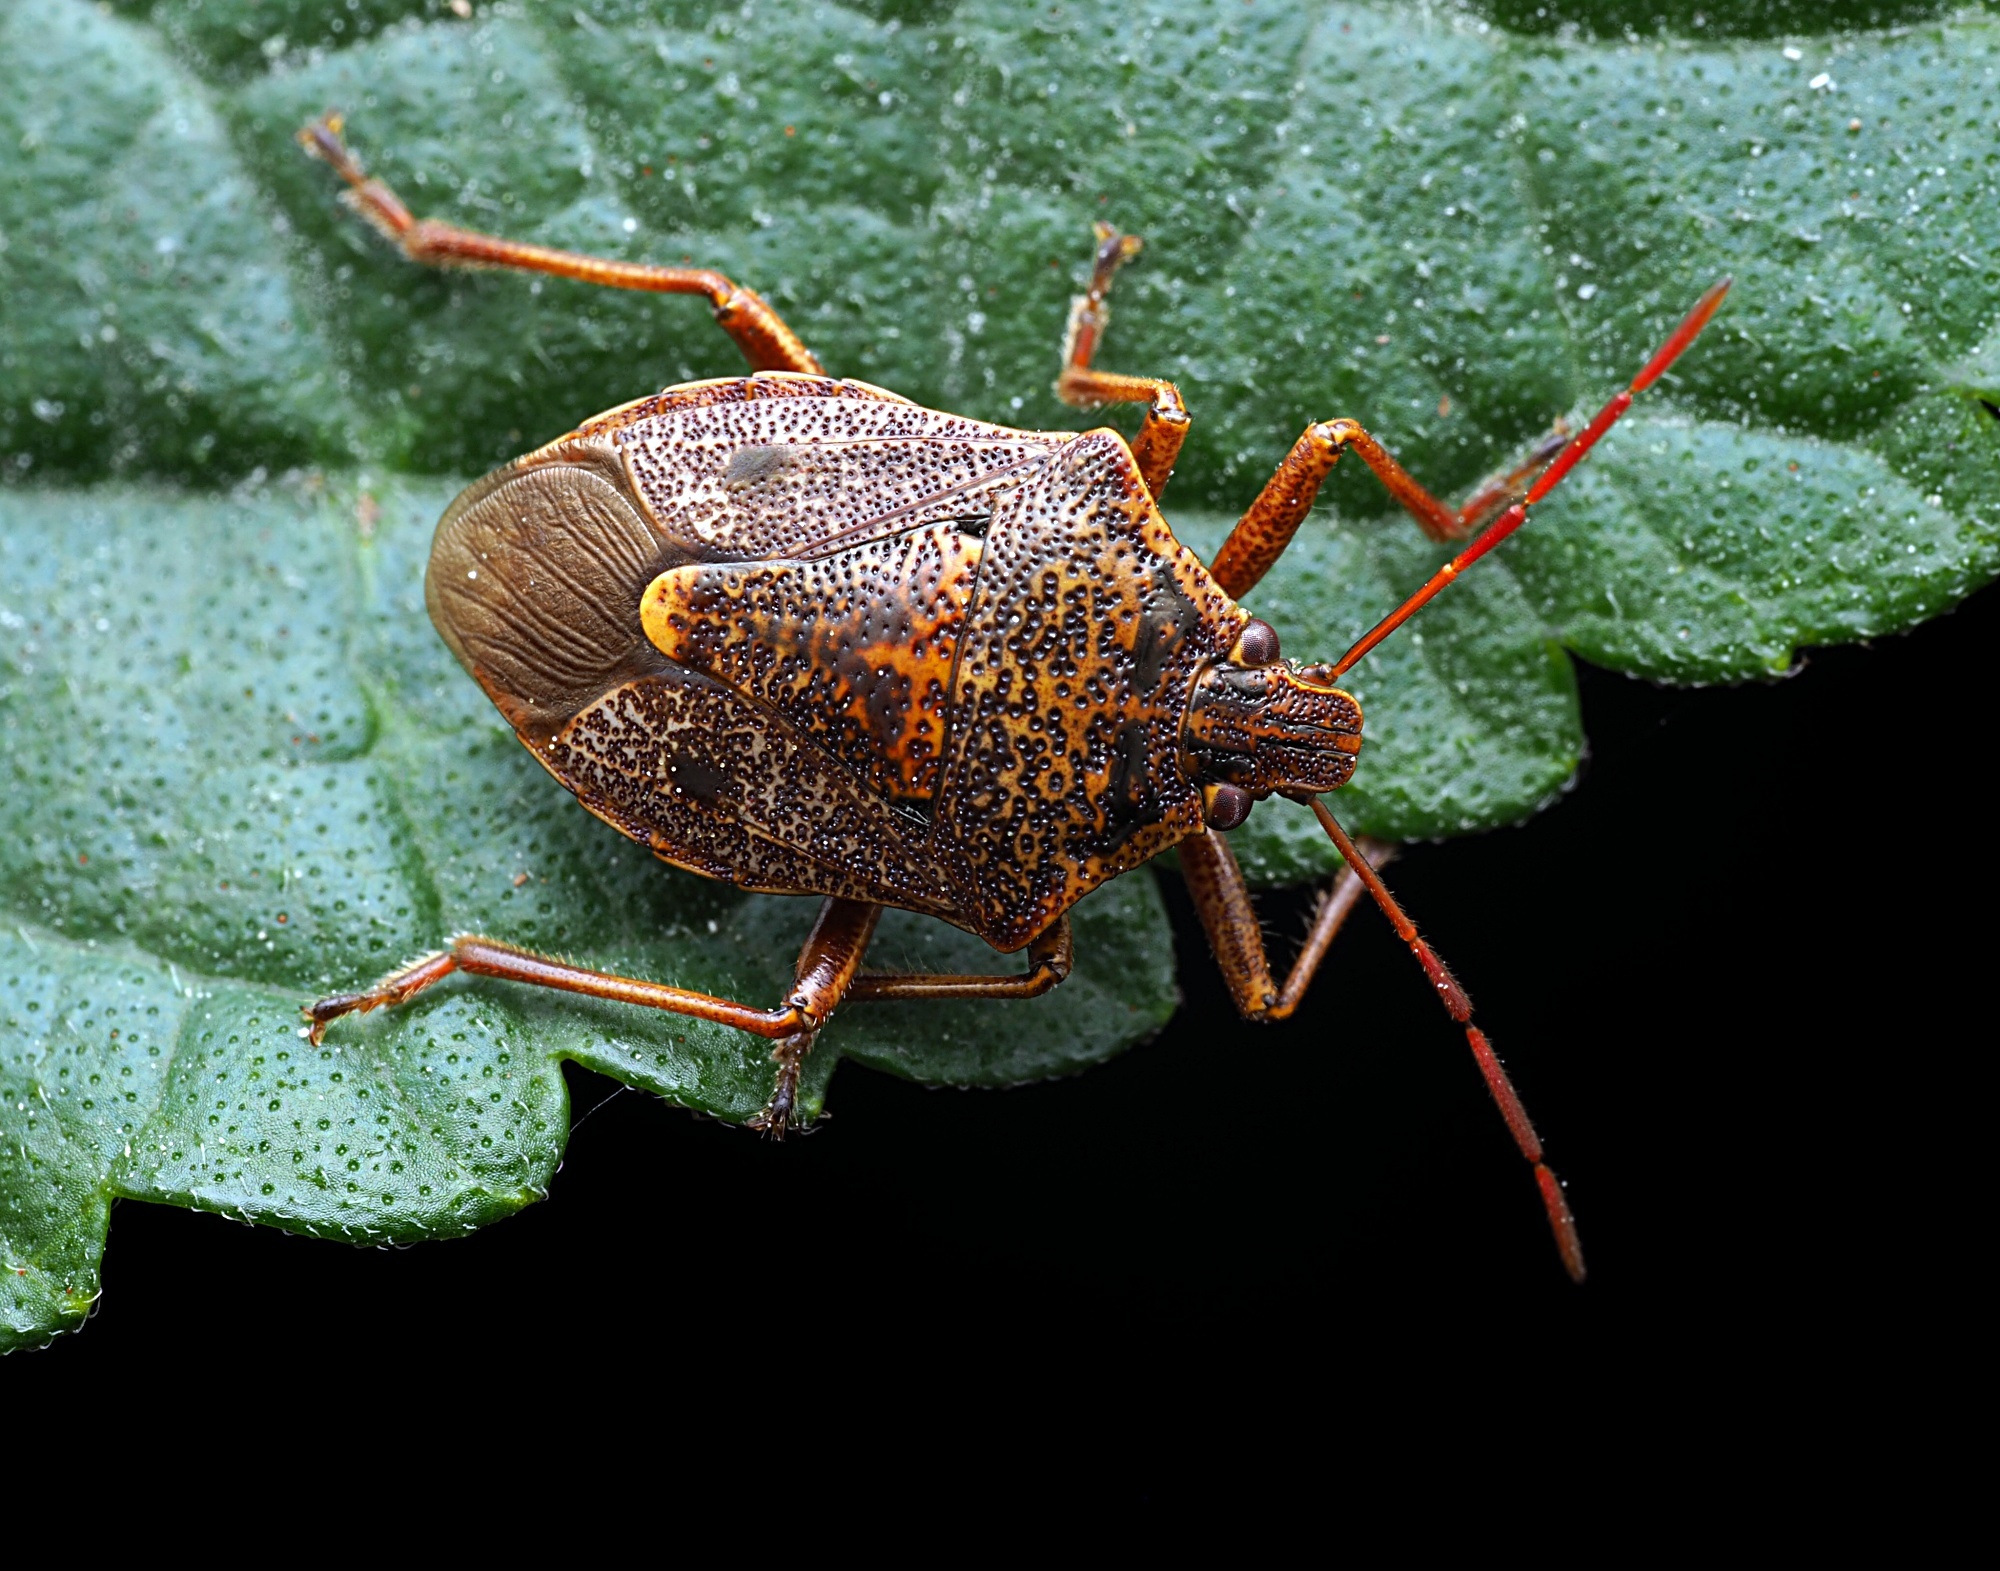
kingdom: Animalia
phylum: Arthropoda
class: Insecta
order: Hemiptera
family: Pentatomidae
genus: Cermatulus
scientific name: Cermatulus nasalis
